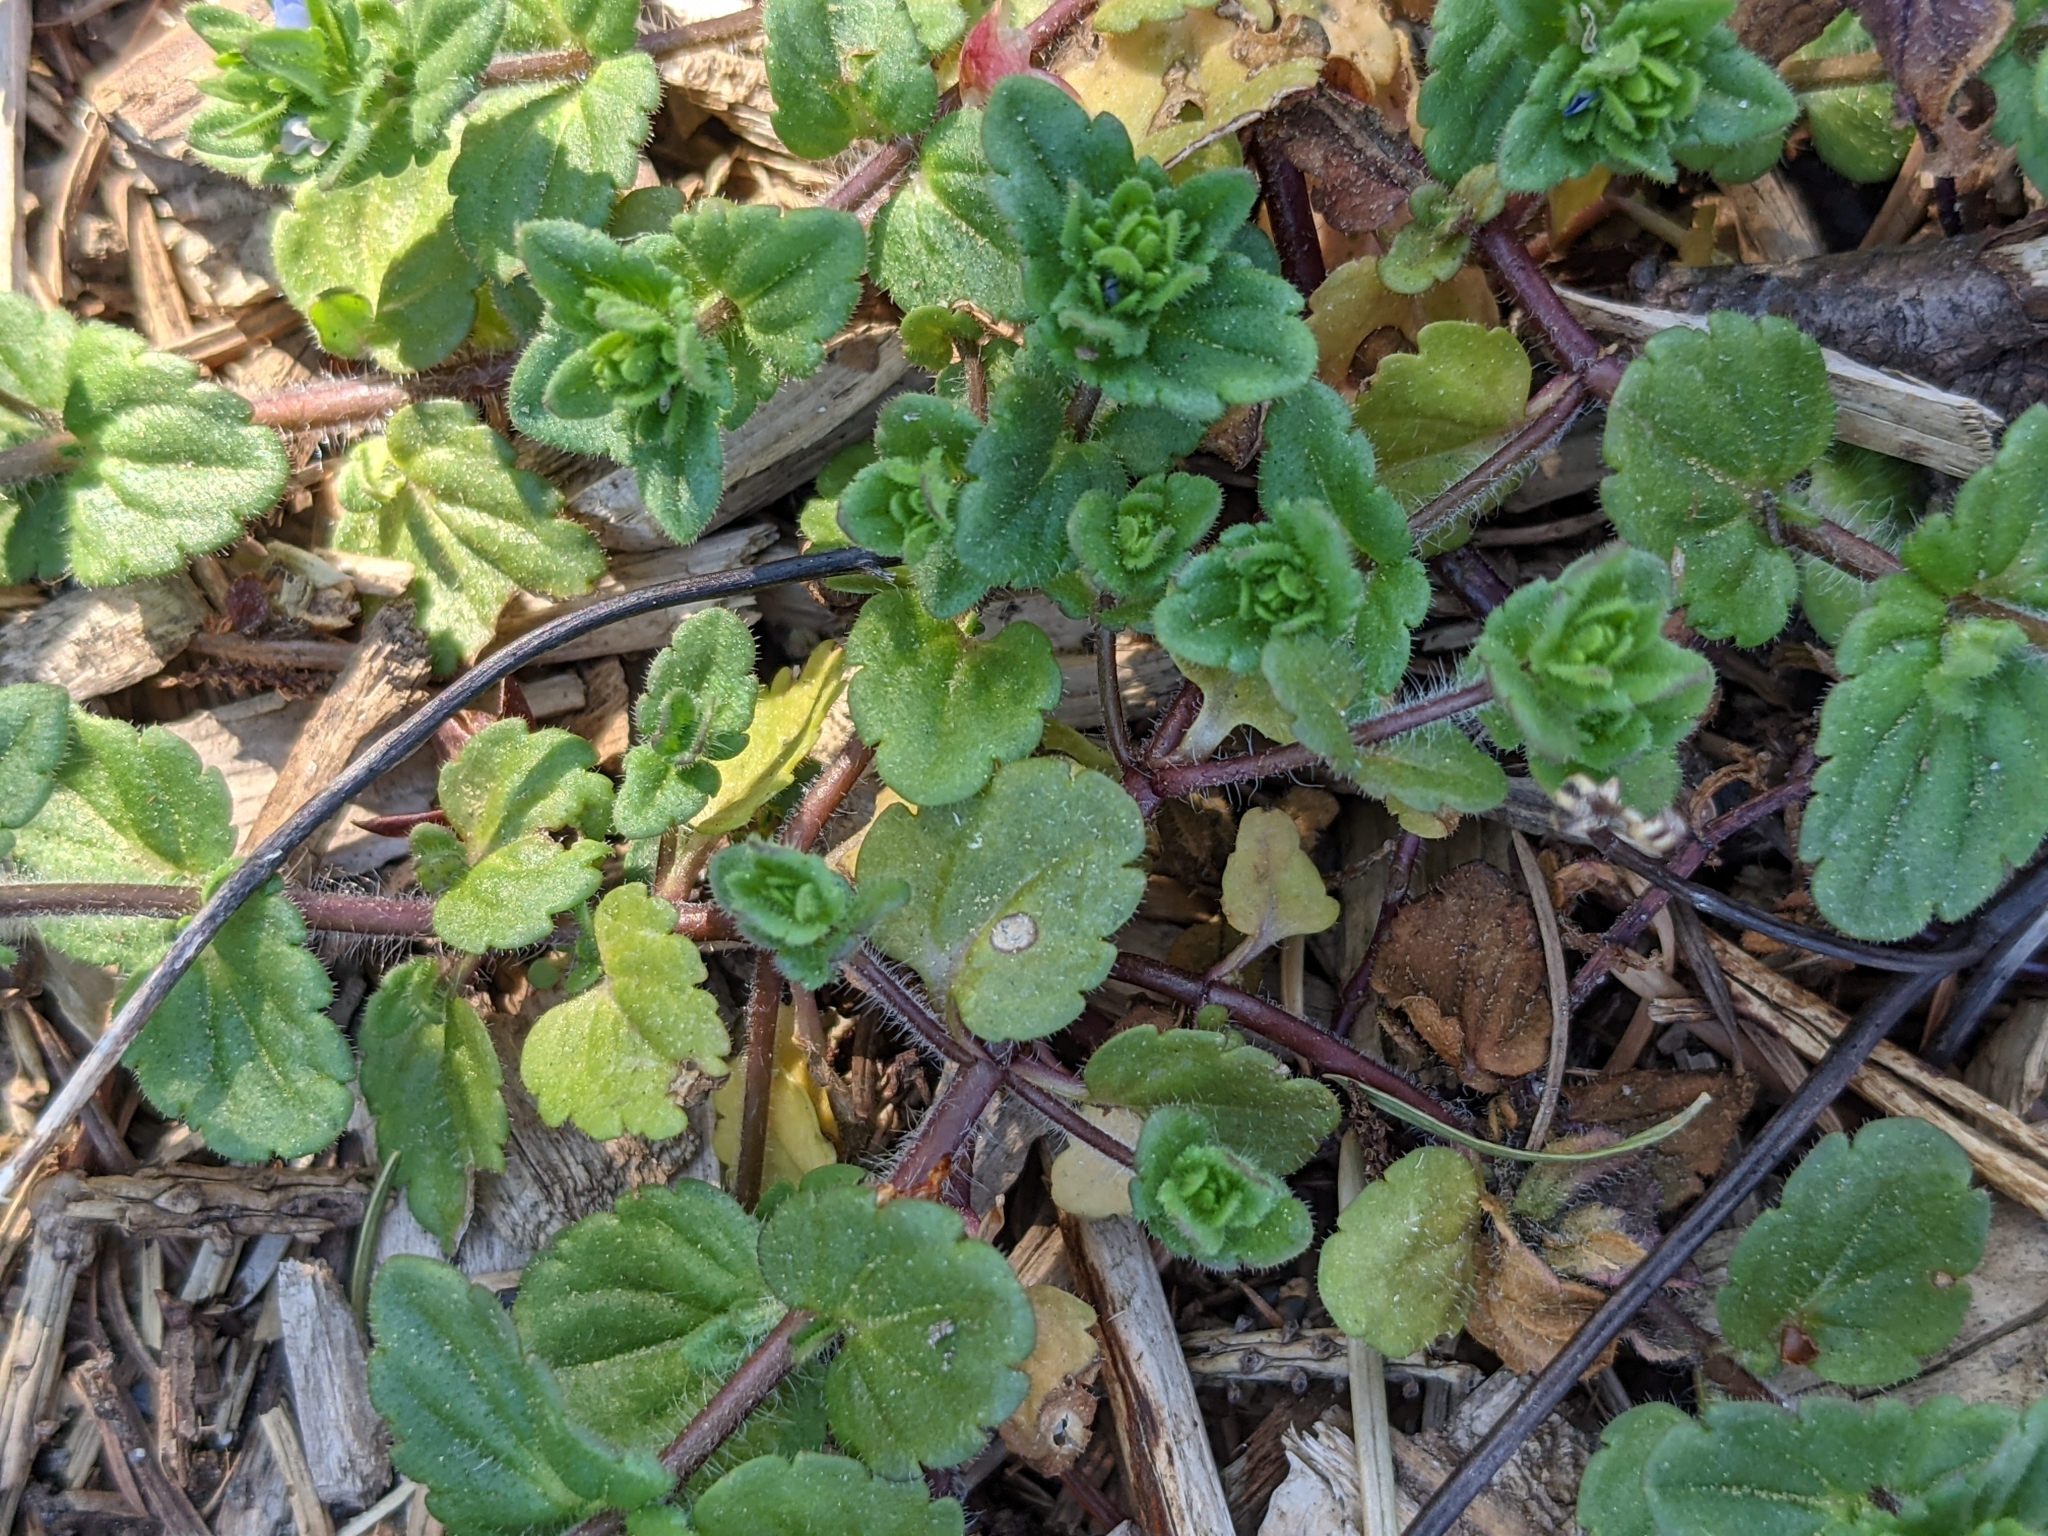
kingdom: Plantae
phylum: Tracheophyta
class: Magnoliopsida
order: Lamiales
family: Plantaginaceae
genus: Veronica
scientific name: Veronica arvensis
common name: Corn speedwell
